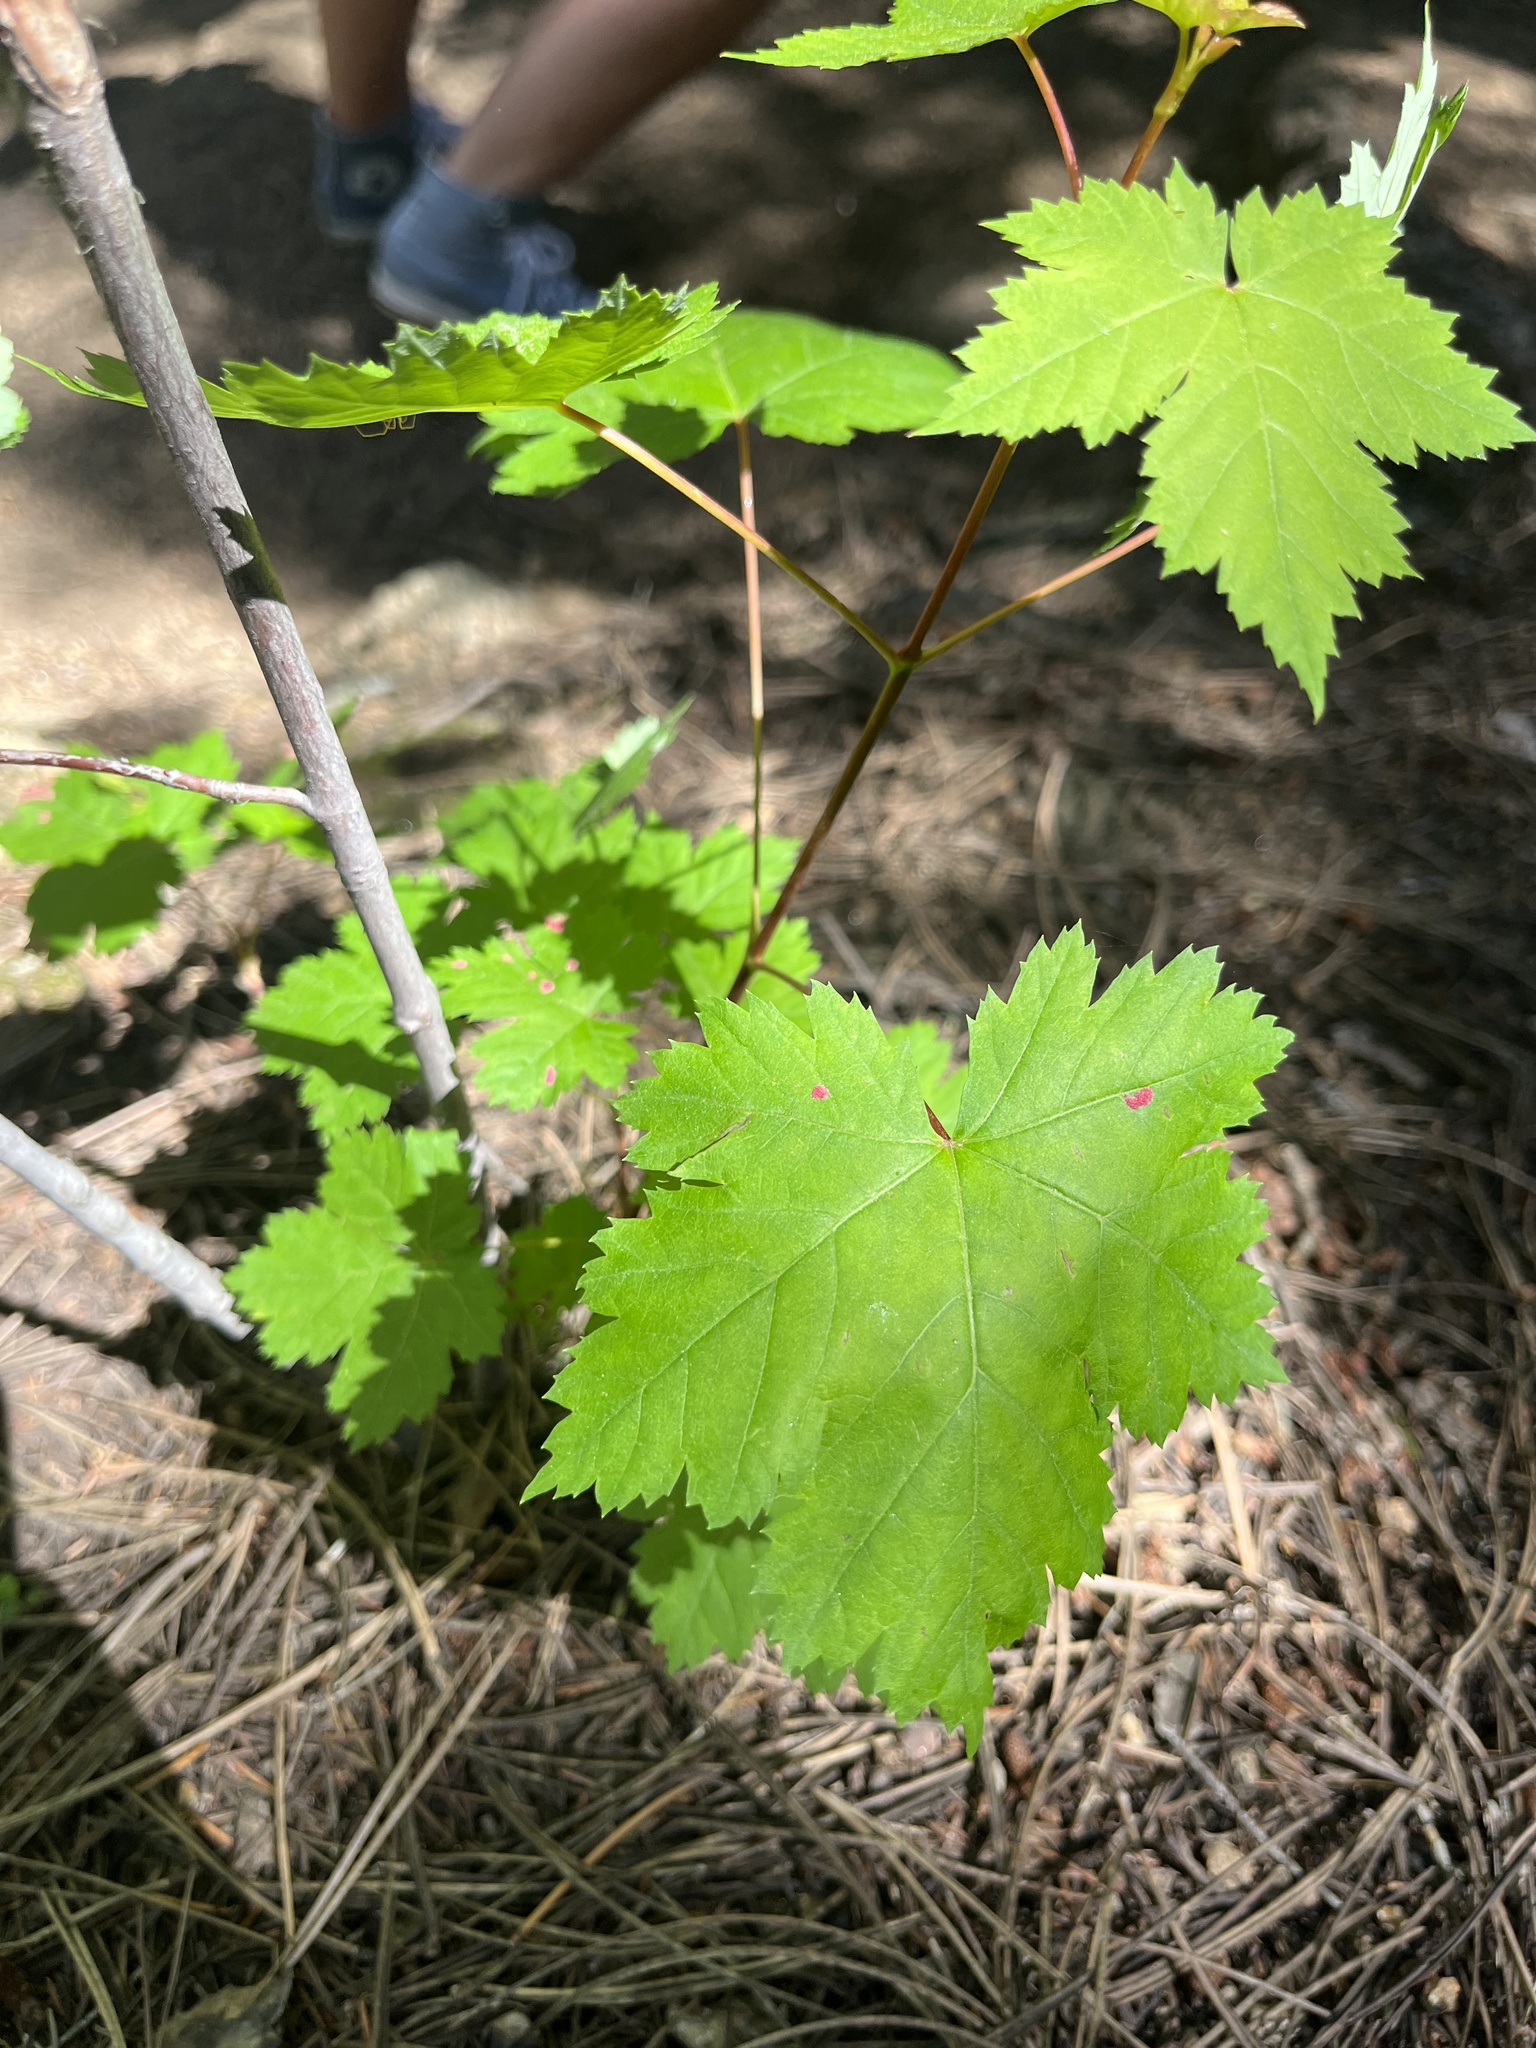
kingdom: Plantae
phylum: Tracheophyta
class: Magnoliopsida
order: Sapindales
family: Sapindaceae
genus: Acer
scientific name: Acer glabrum
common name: Rocky mountain maple
